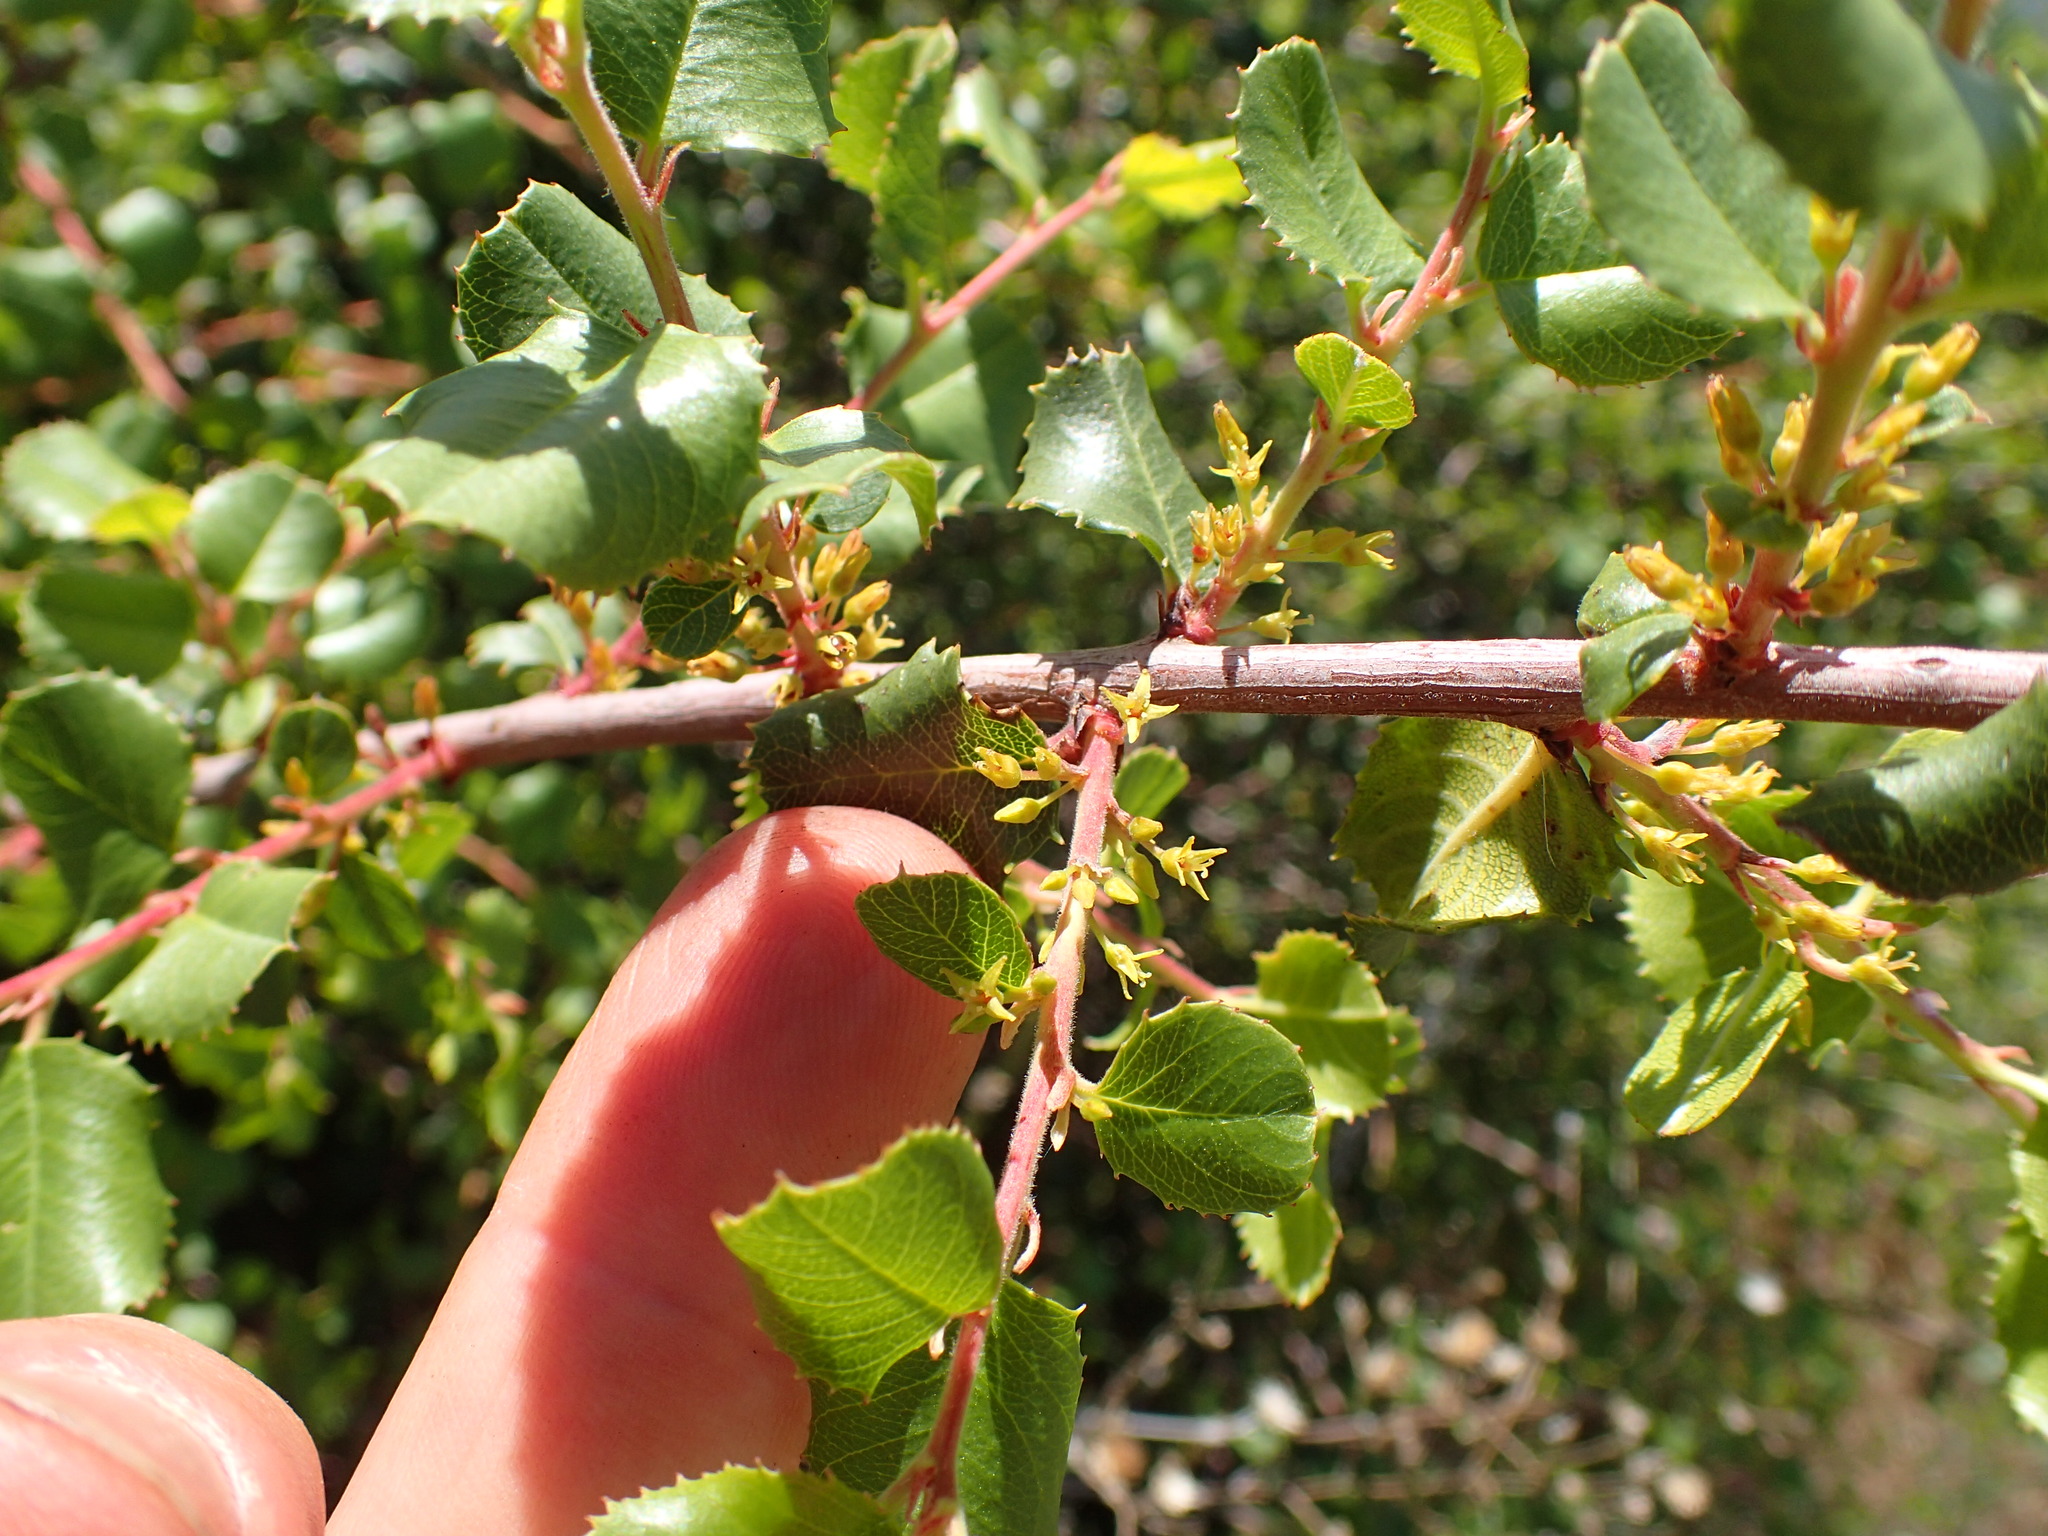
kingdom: Plantae
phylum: Tracheophyta
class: Magnoliopsida
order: Rosales
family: Rhamnaceae
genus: Endotropis
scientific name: Endotropis crocea
